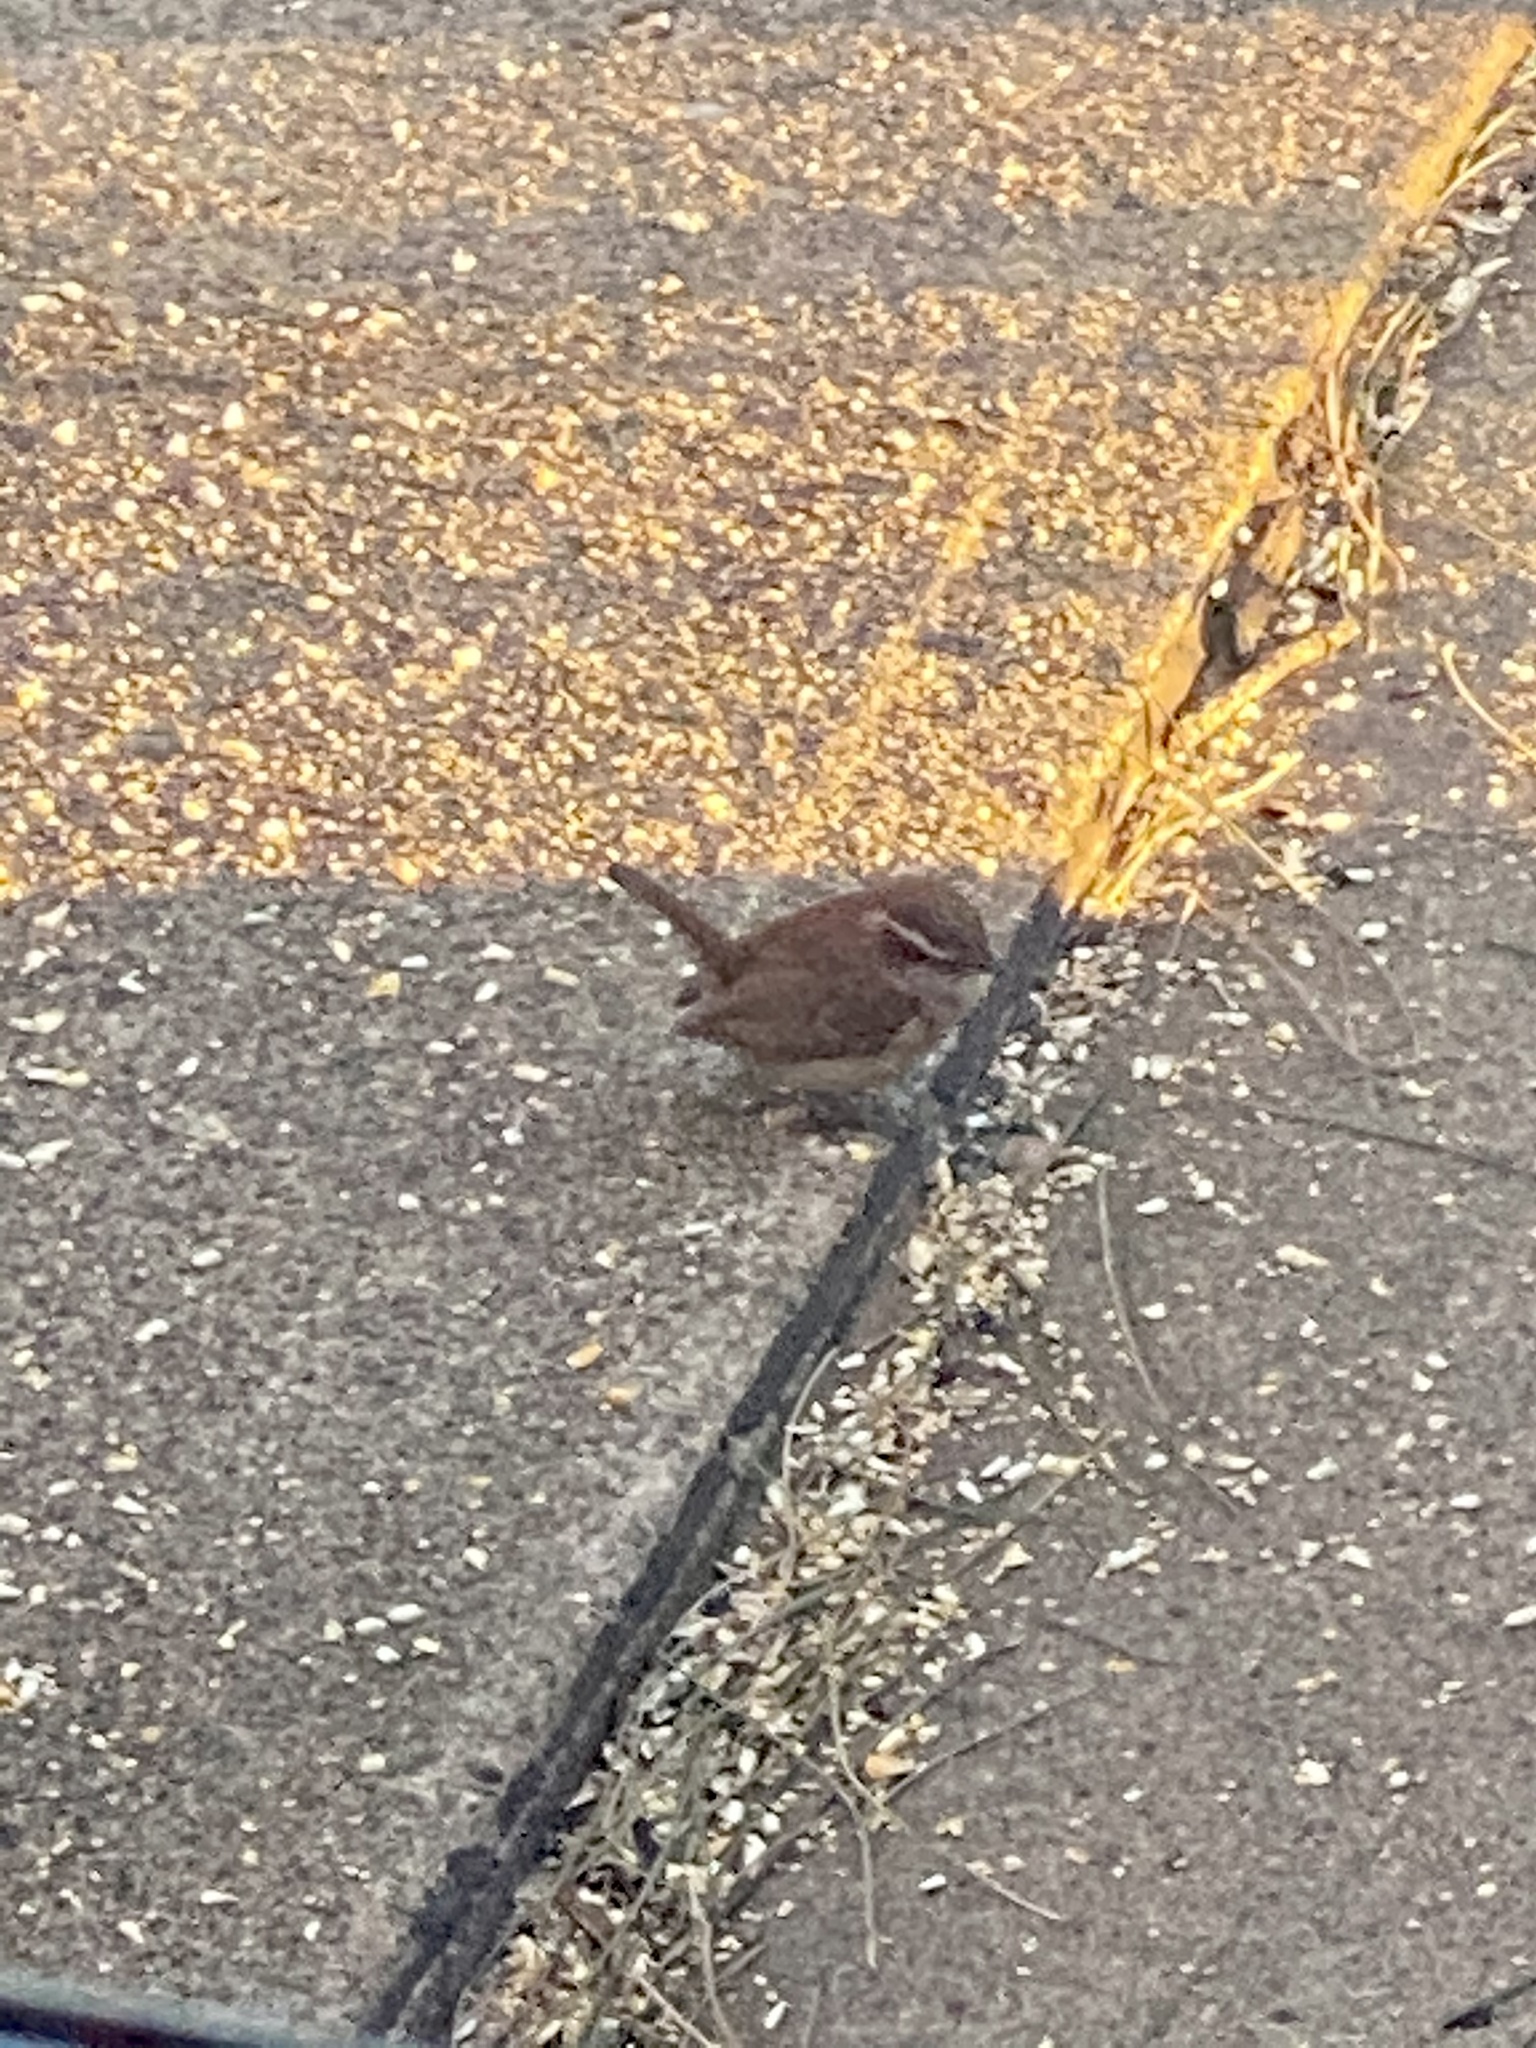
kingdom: Animalia
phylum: Chordata
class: Aves
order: Passeriformes
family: Troglodytidae
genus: Thryothorus
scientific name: Thryothorus ludovicianus
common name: Carolina wren
